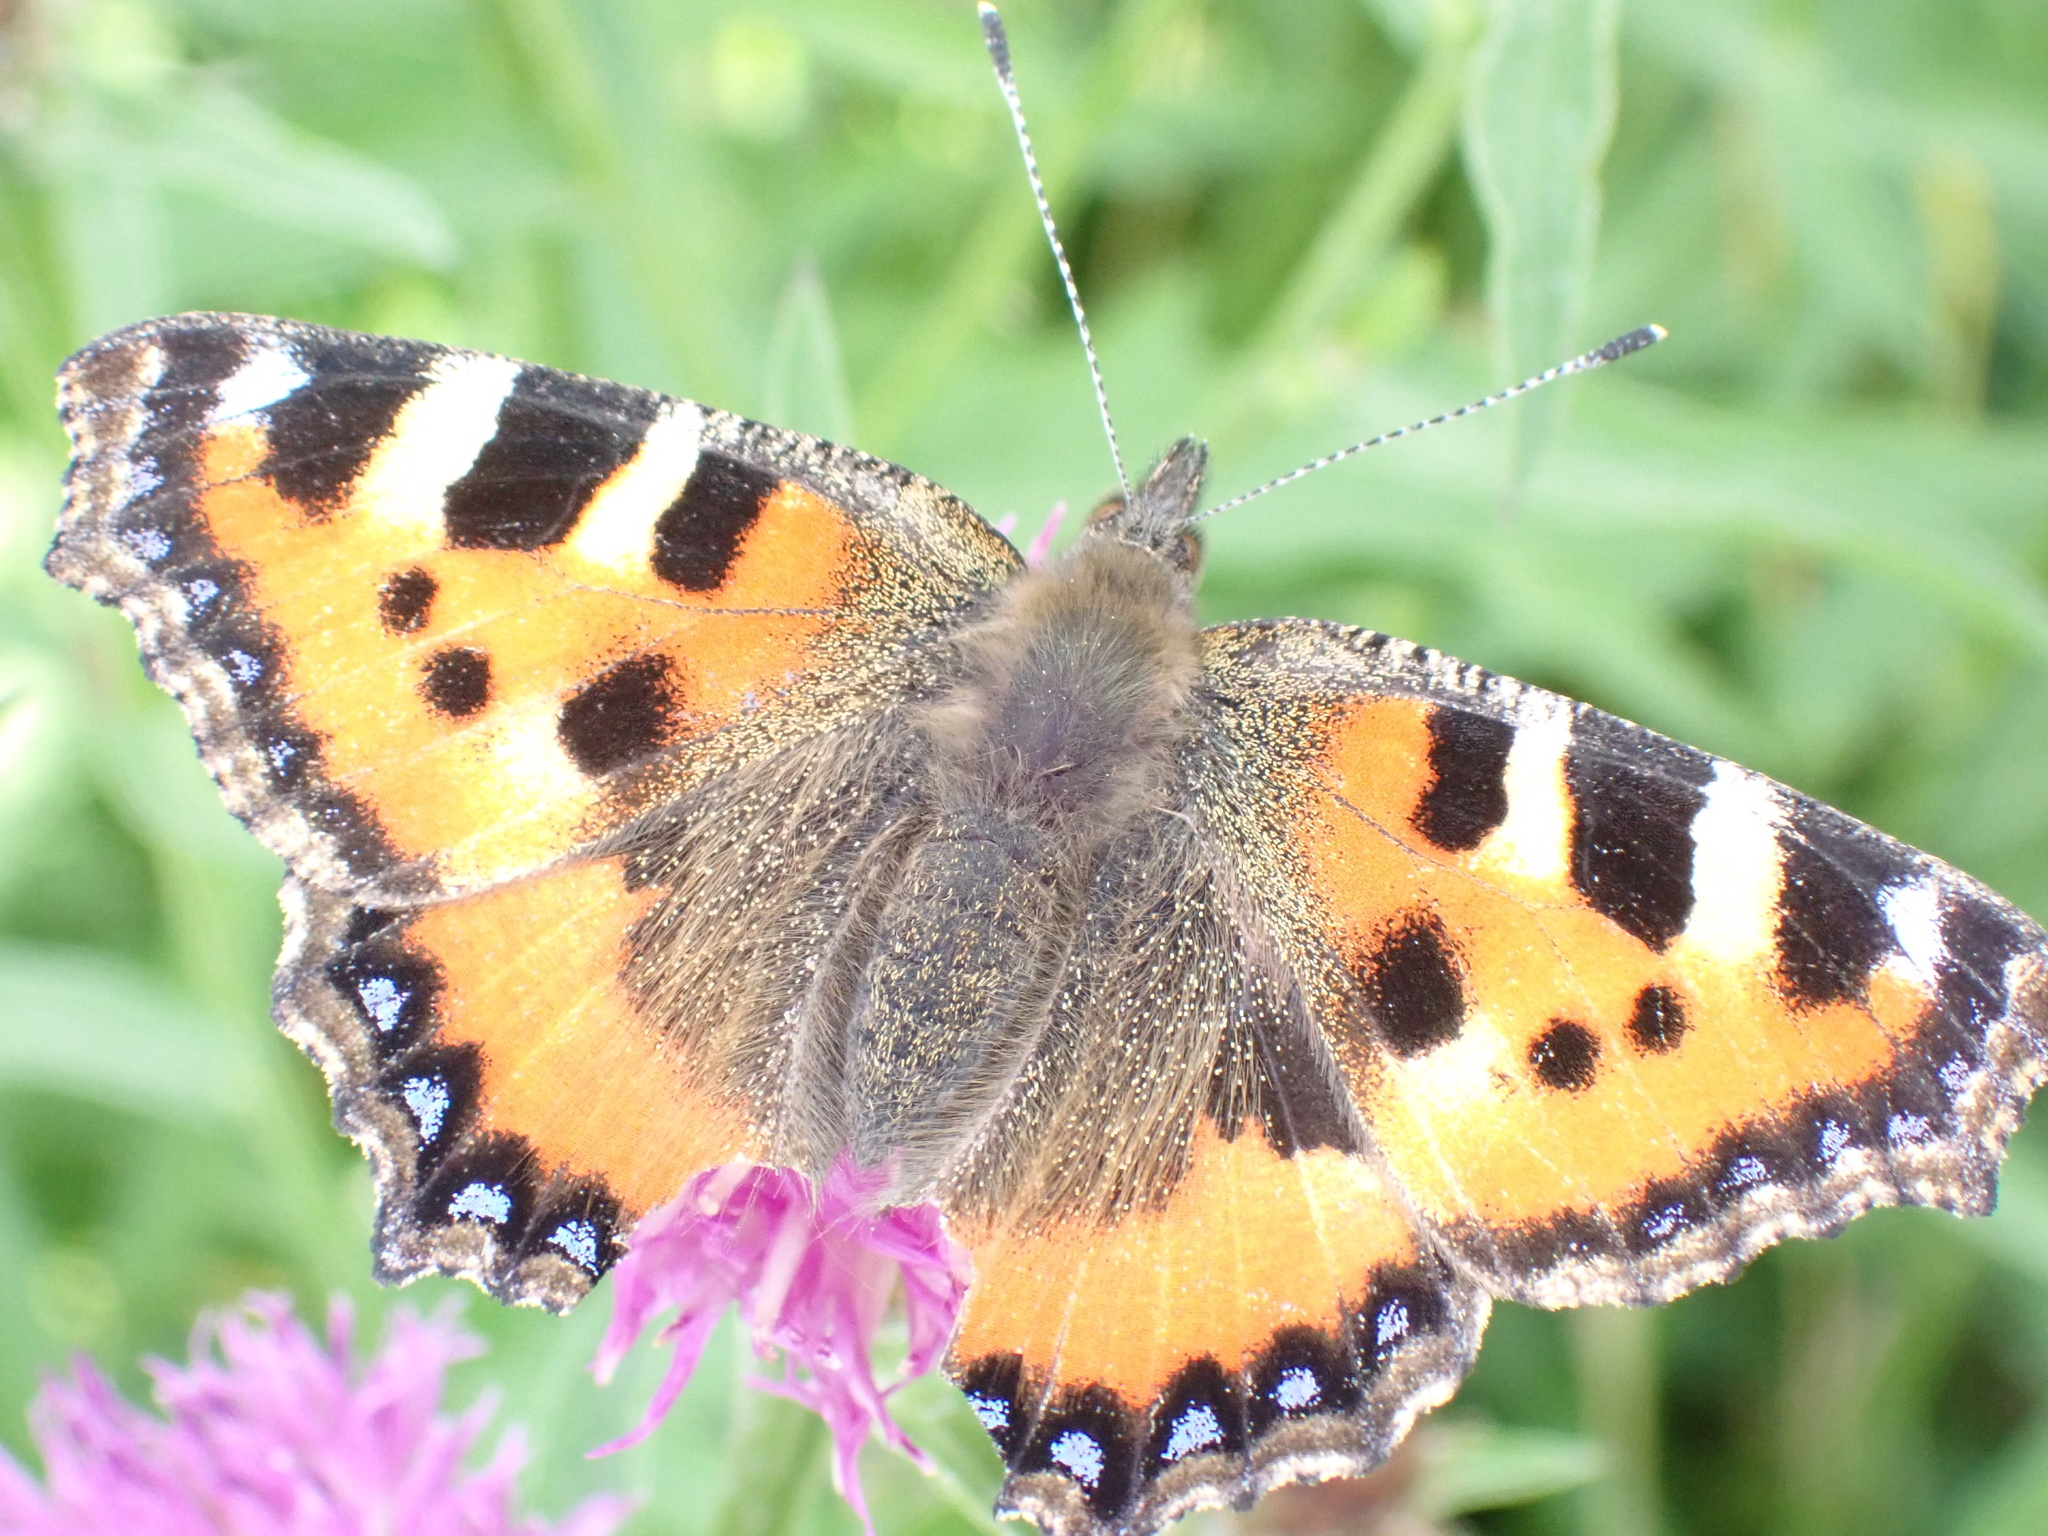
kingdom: Animalia
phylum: Arthropoda
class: Insecta
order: Lepidoptera
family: Nymphalidae
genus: Aglais
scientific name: Aglais urticae
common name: Small tortoiseshell
